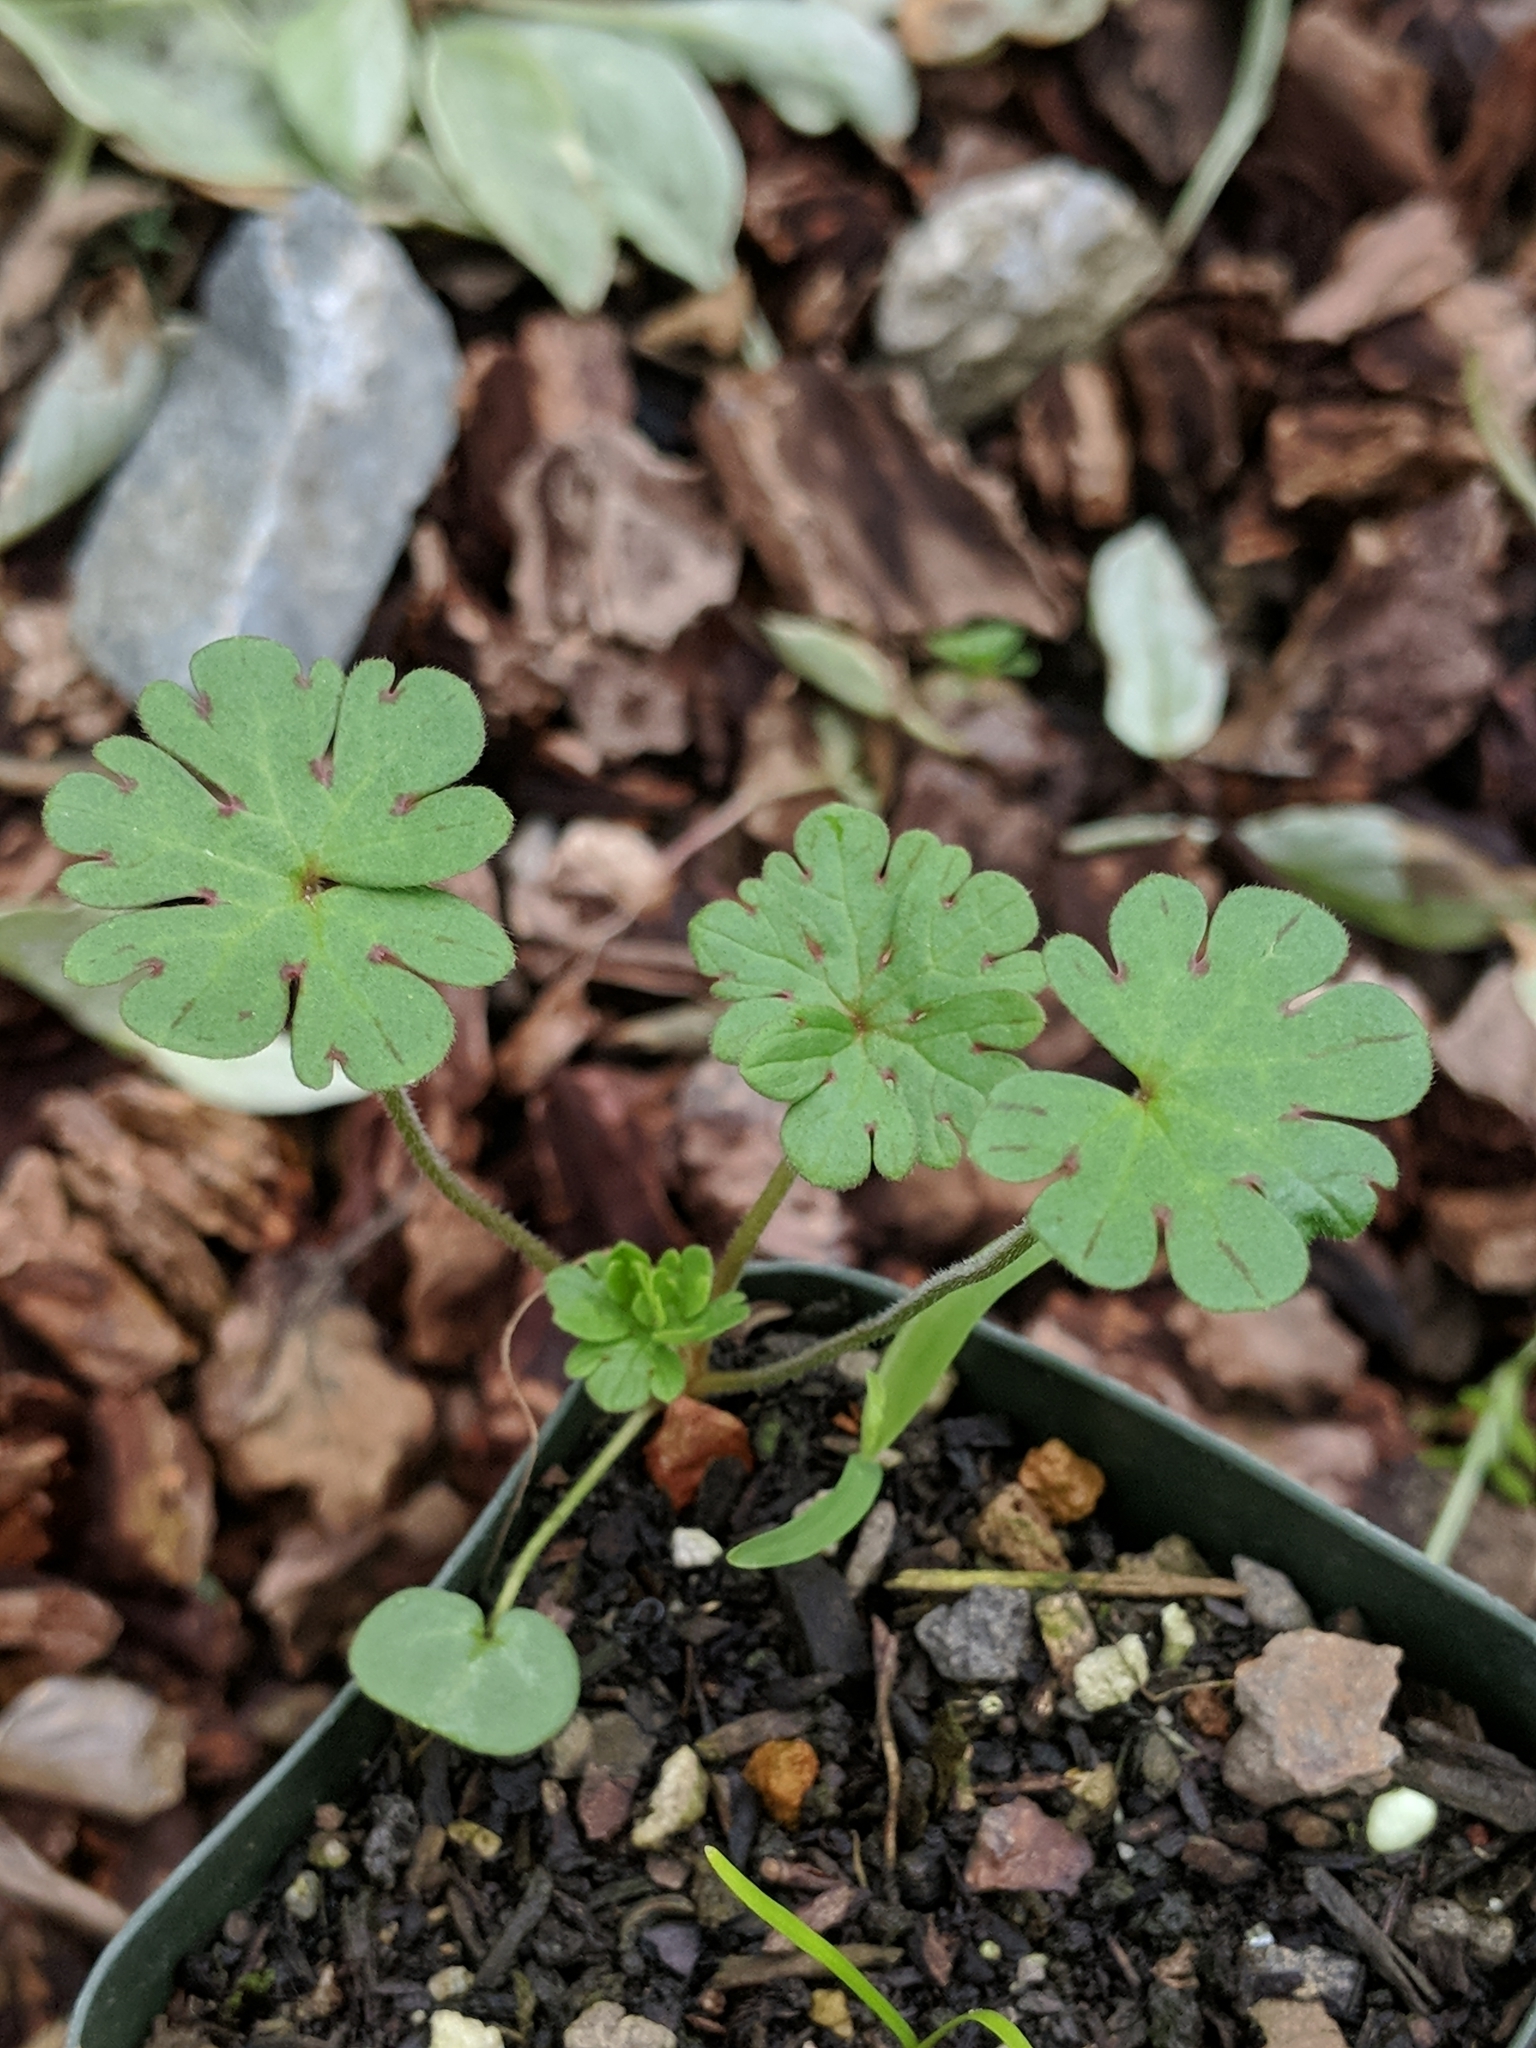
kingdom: Plantae
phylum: Tracheophyta
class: Magnoliopsida
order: Geraniales
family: Geraniaceae
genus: Geranium
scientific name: Geranium molle
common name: Dove's-foot crane's-bill
